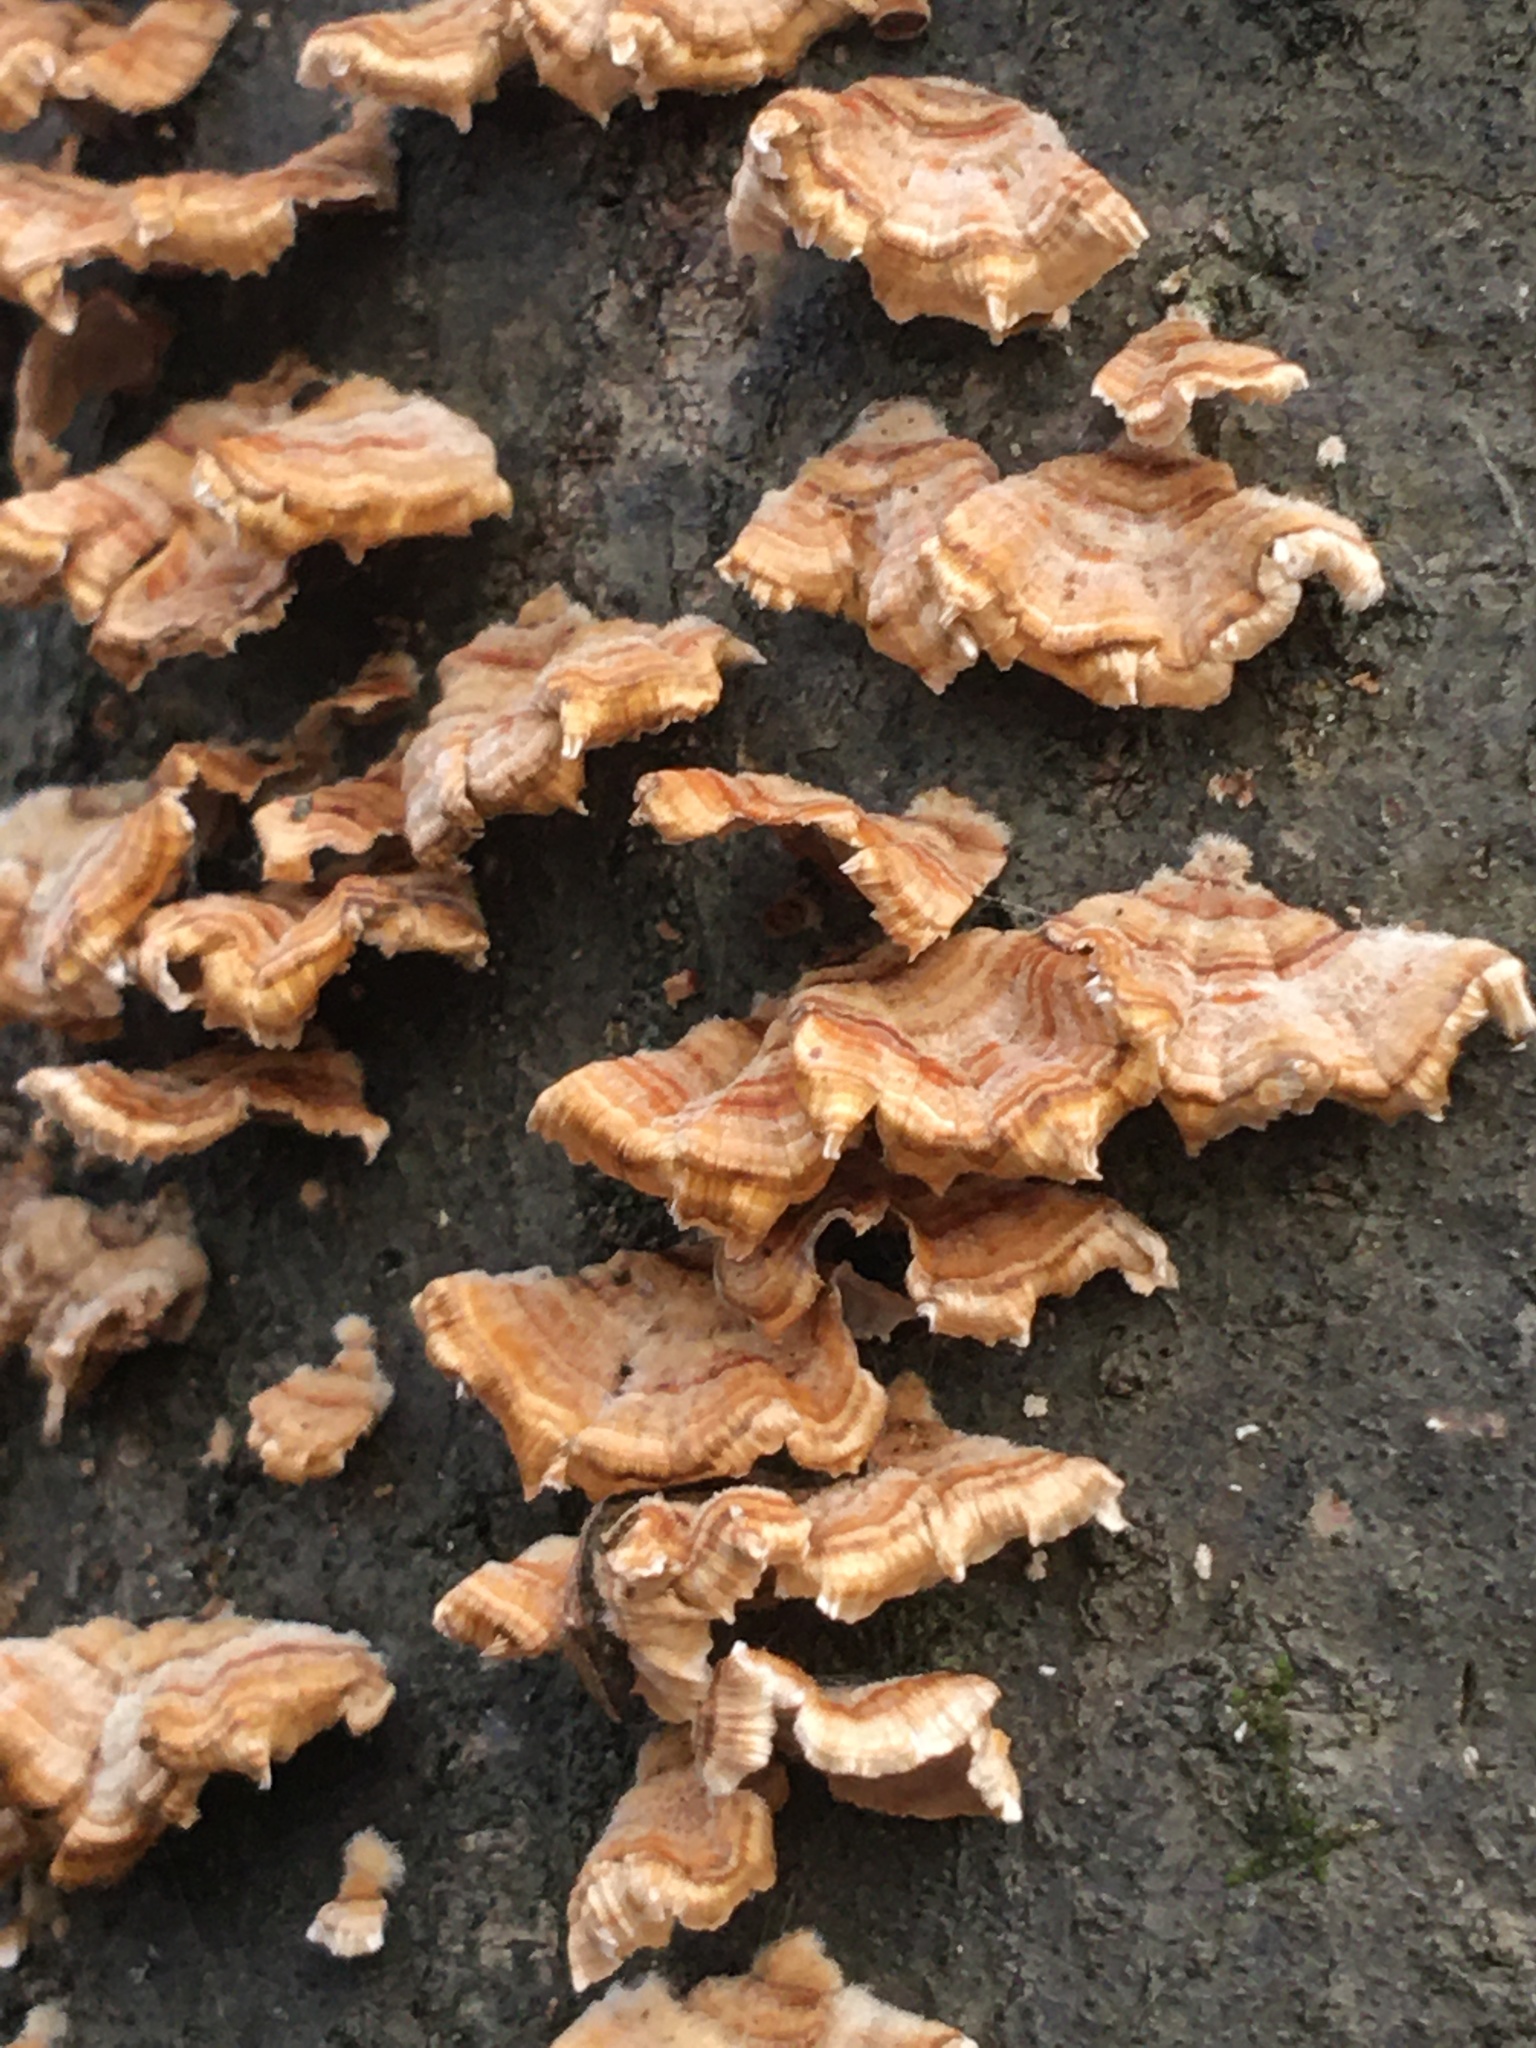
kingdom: Fungi
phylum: Basidiomycota
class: Agaricomycetes
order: Russulales
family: Stereaceae
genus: Stereum
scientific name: Stereum complicatum
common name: Crowded parchment
